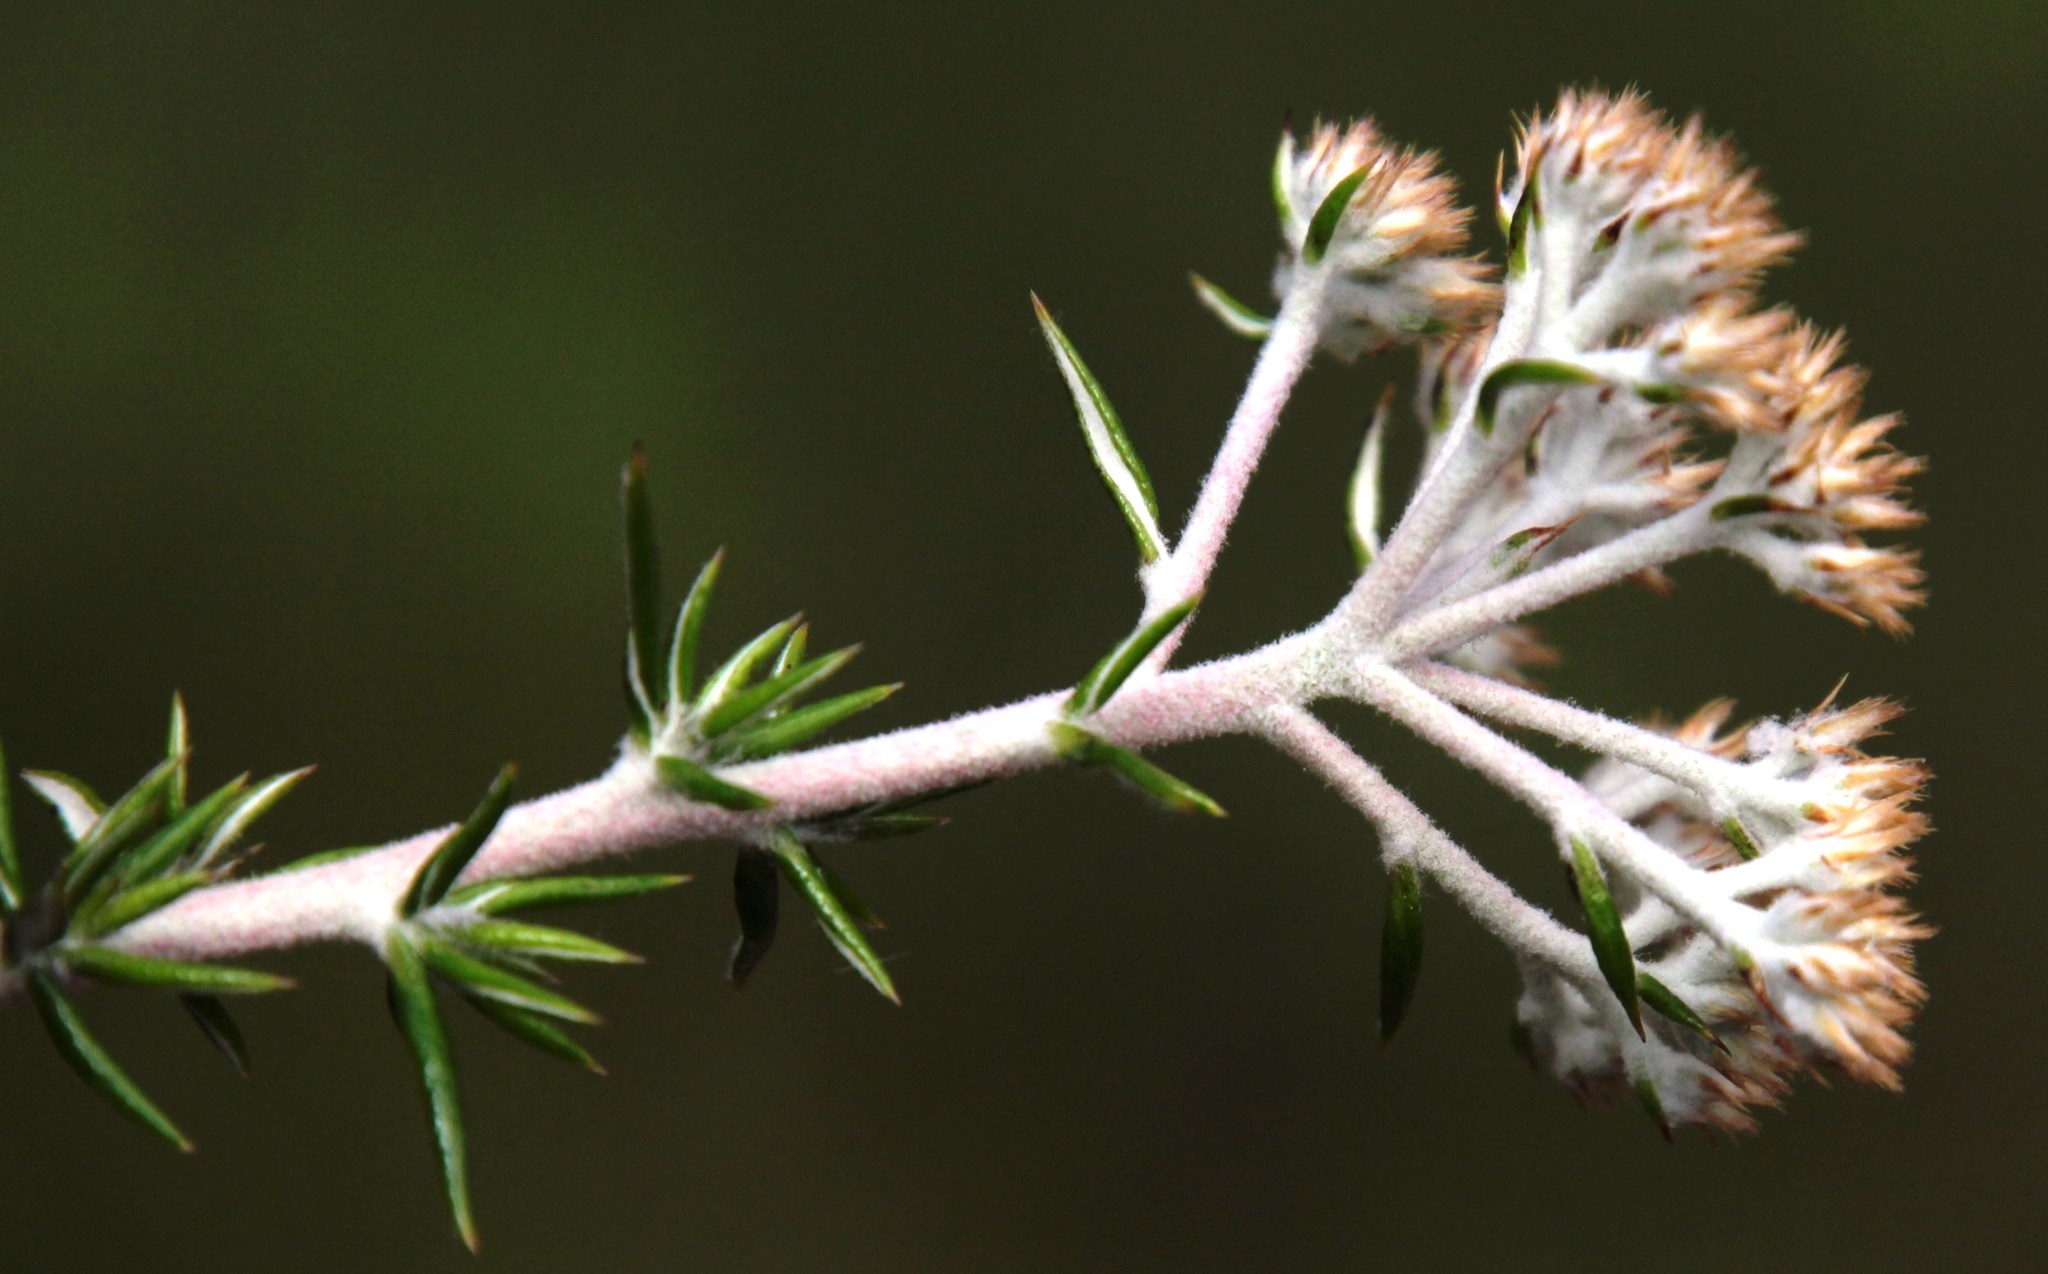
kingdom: Plantae
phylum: Tracheophyta
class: Magnoliopsida
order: Asterales
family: Asteraceae
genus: Metalasia
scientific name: Metalasia densa
